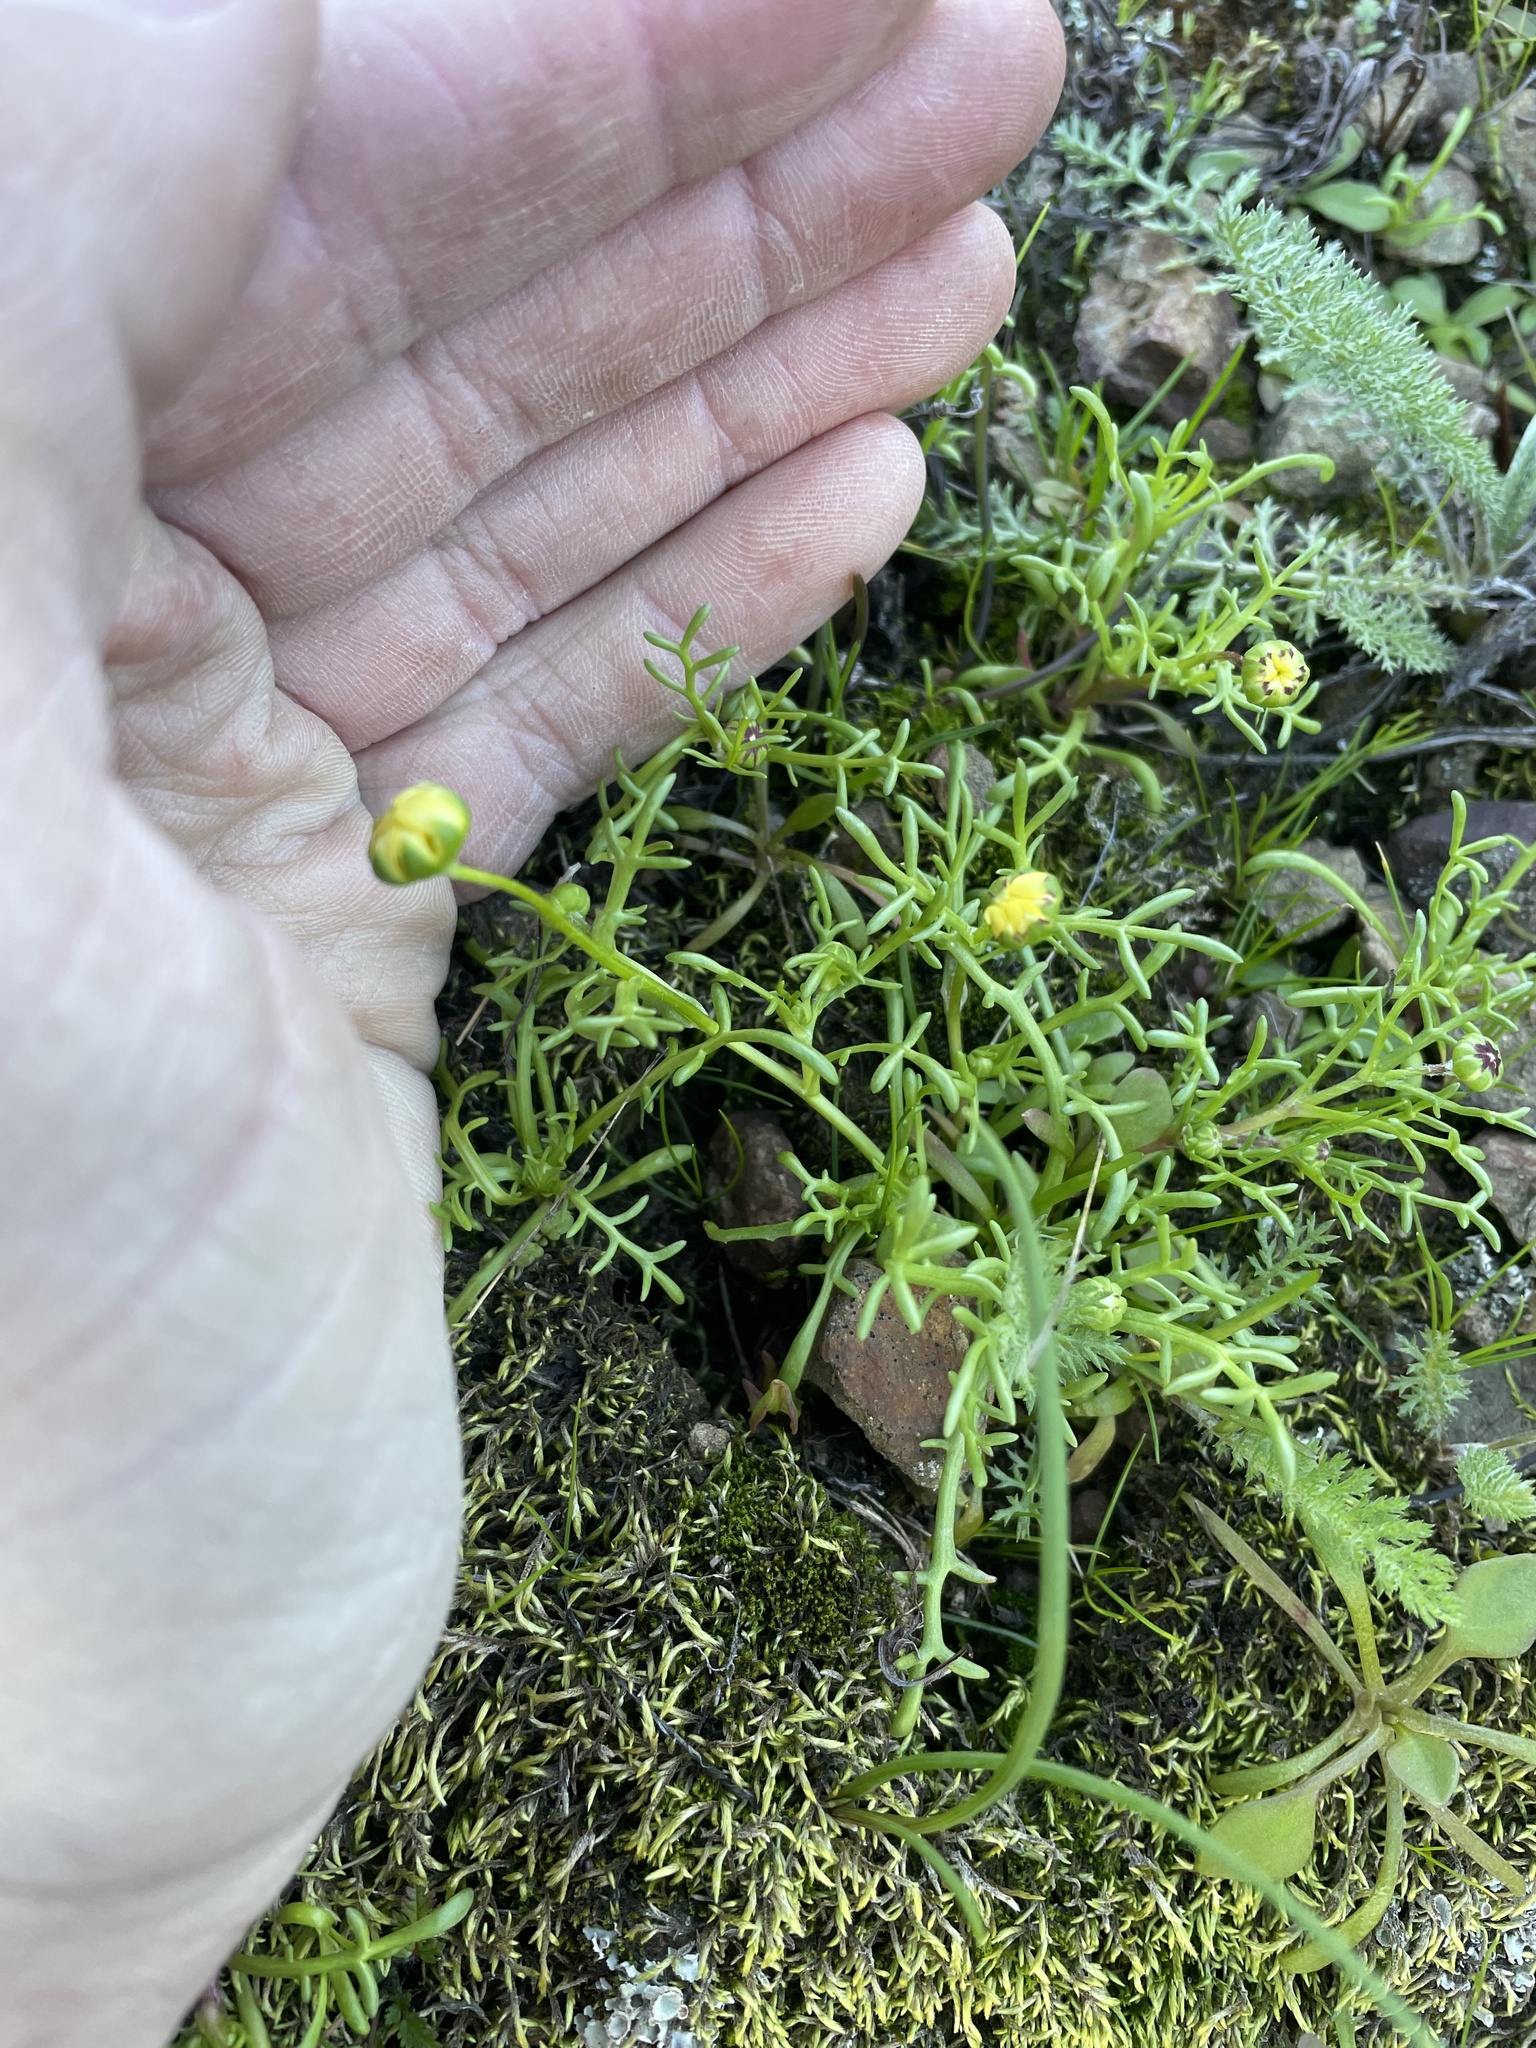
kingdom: Plantae
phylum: Tracheophyta
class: Magnoliopsida
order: Asterales
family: Asteraceae
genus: Blennosperma
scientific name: Blennosperma nanum
